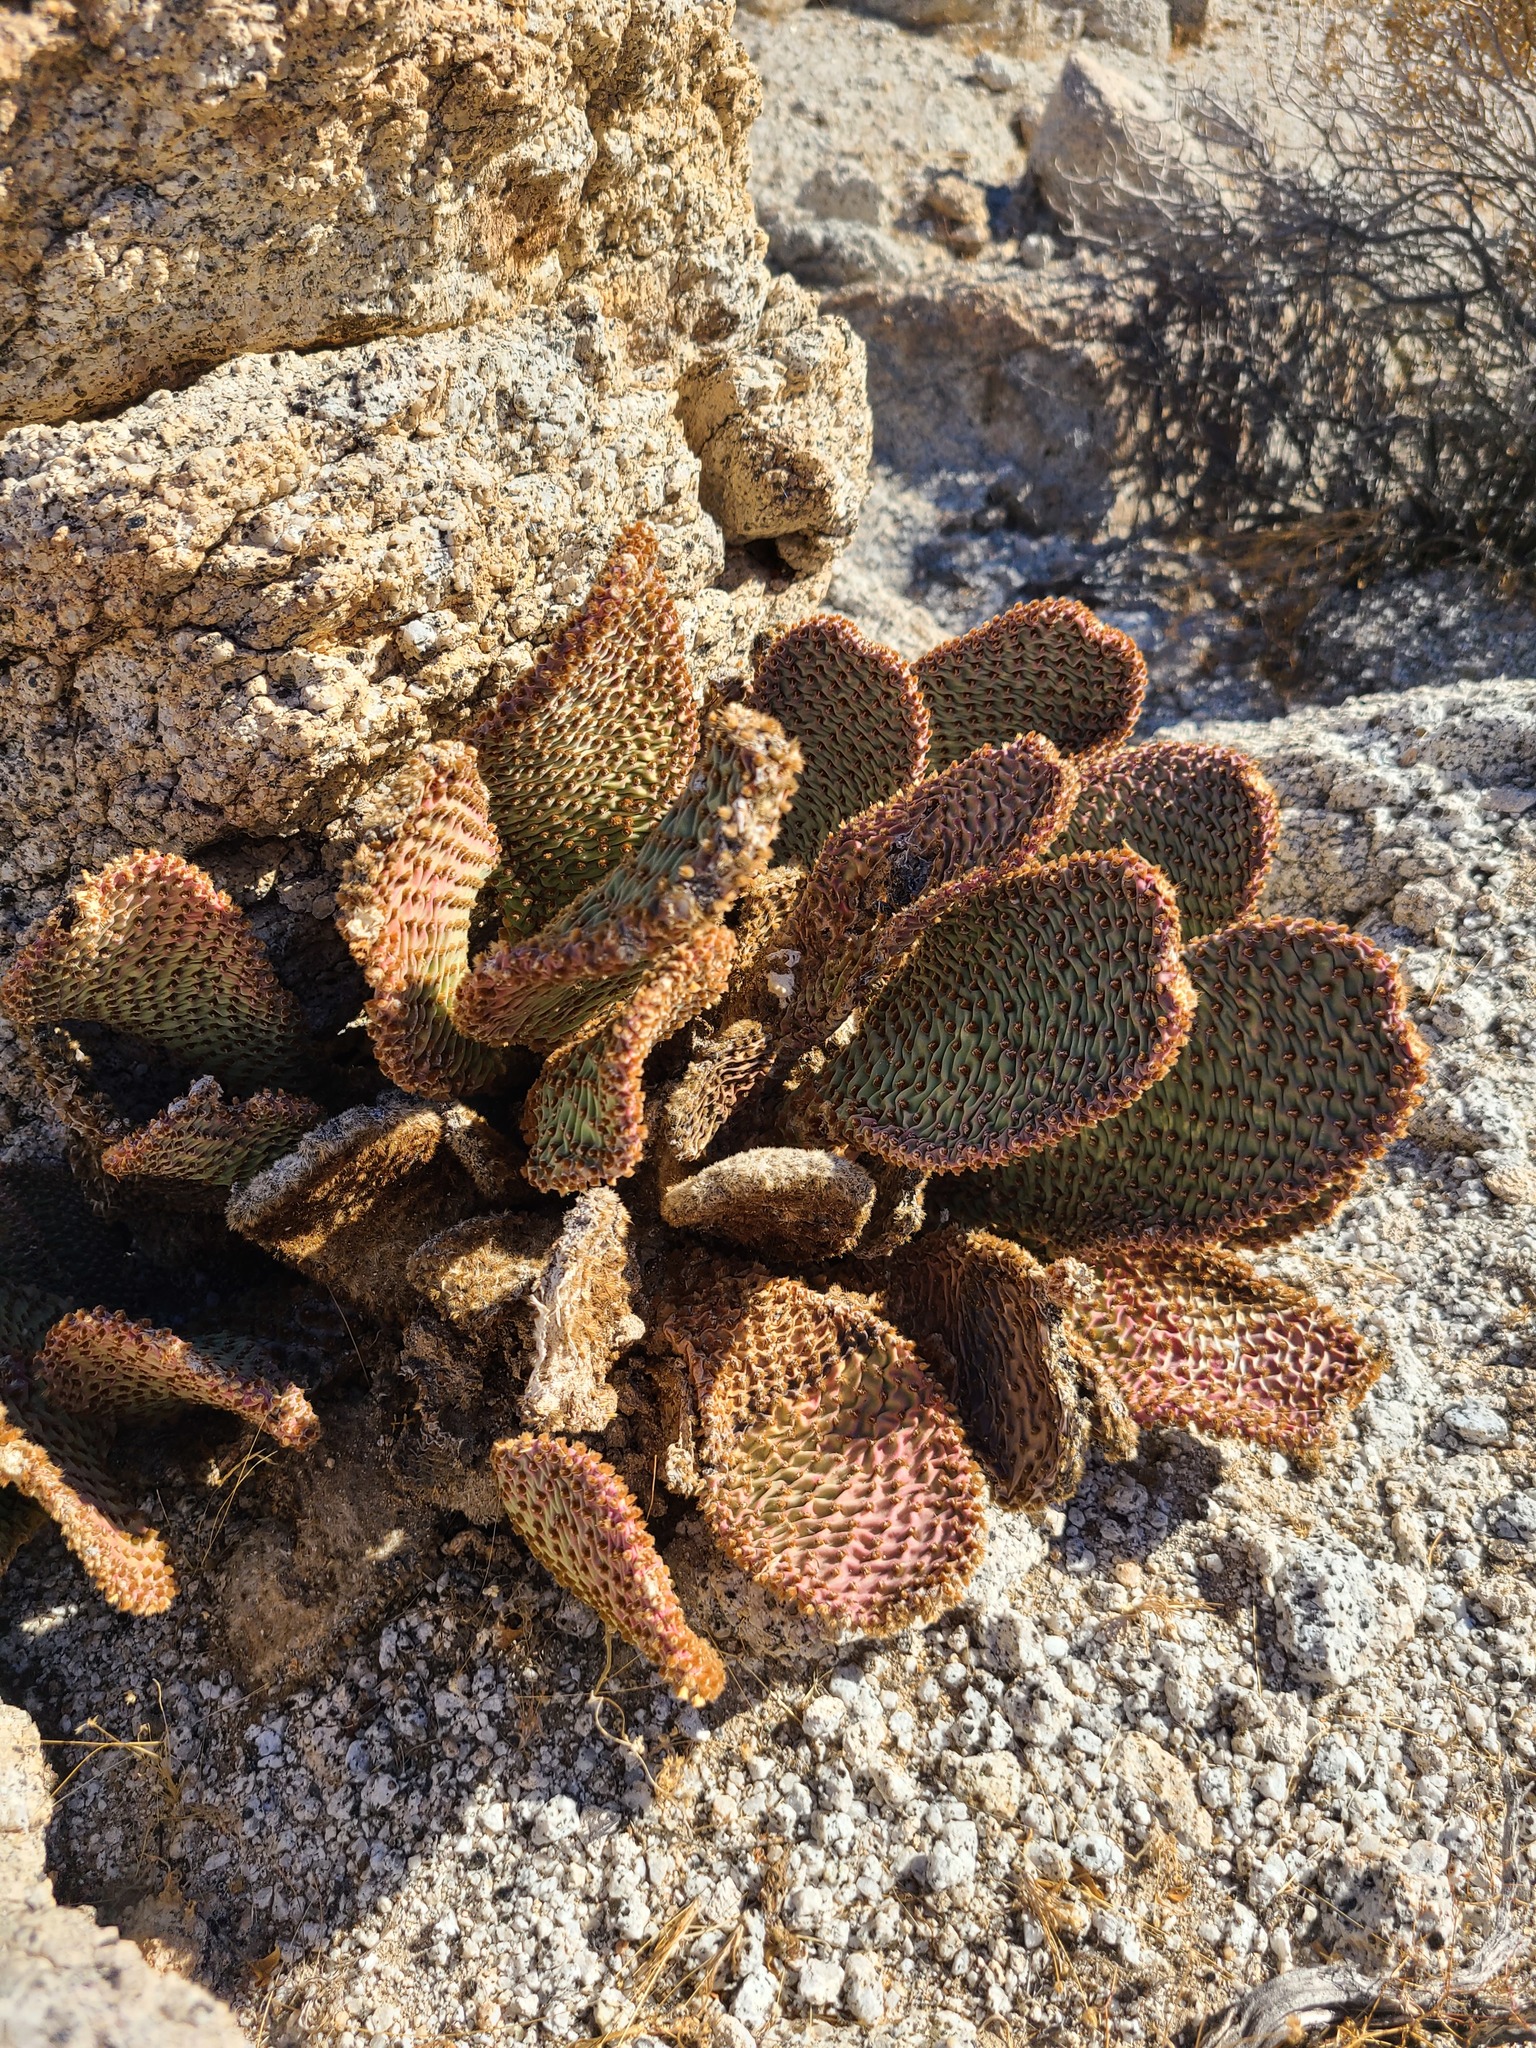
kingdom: Plantae
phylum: Tracheophyta
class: Magnoliopsida
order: Caryophyllales
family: Cactaceae
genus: Opuntia
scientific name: Opuntia basilaris
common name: Beavertail prickly-pear
